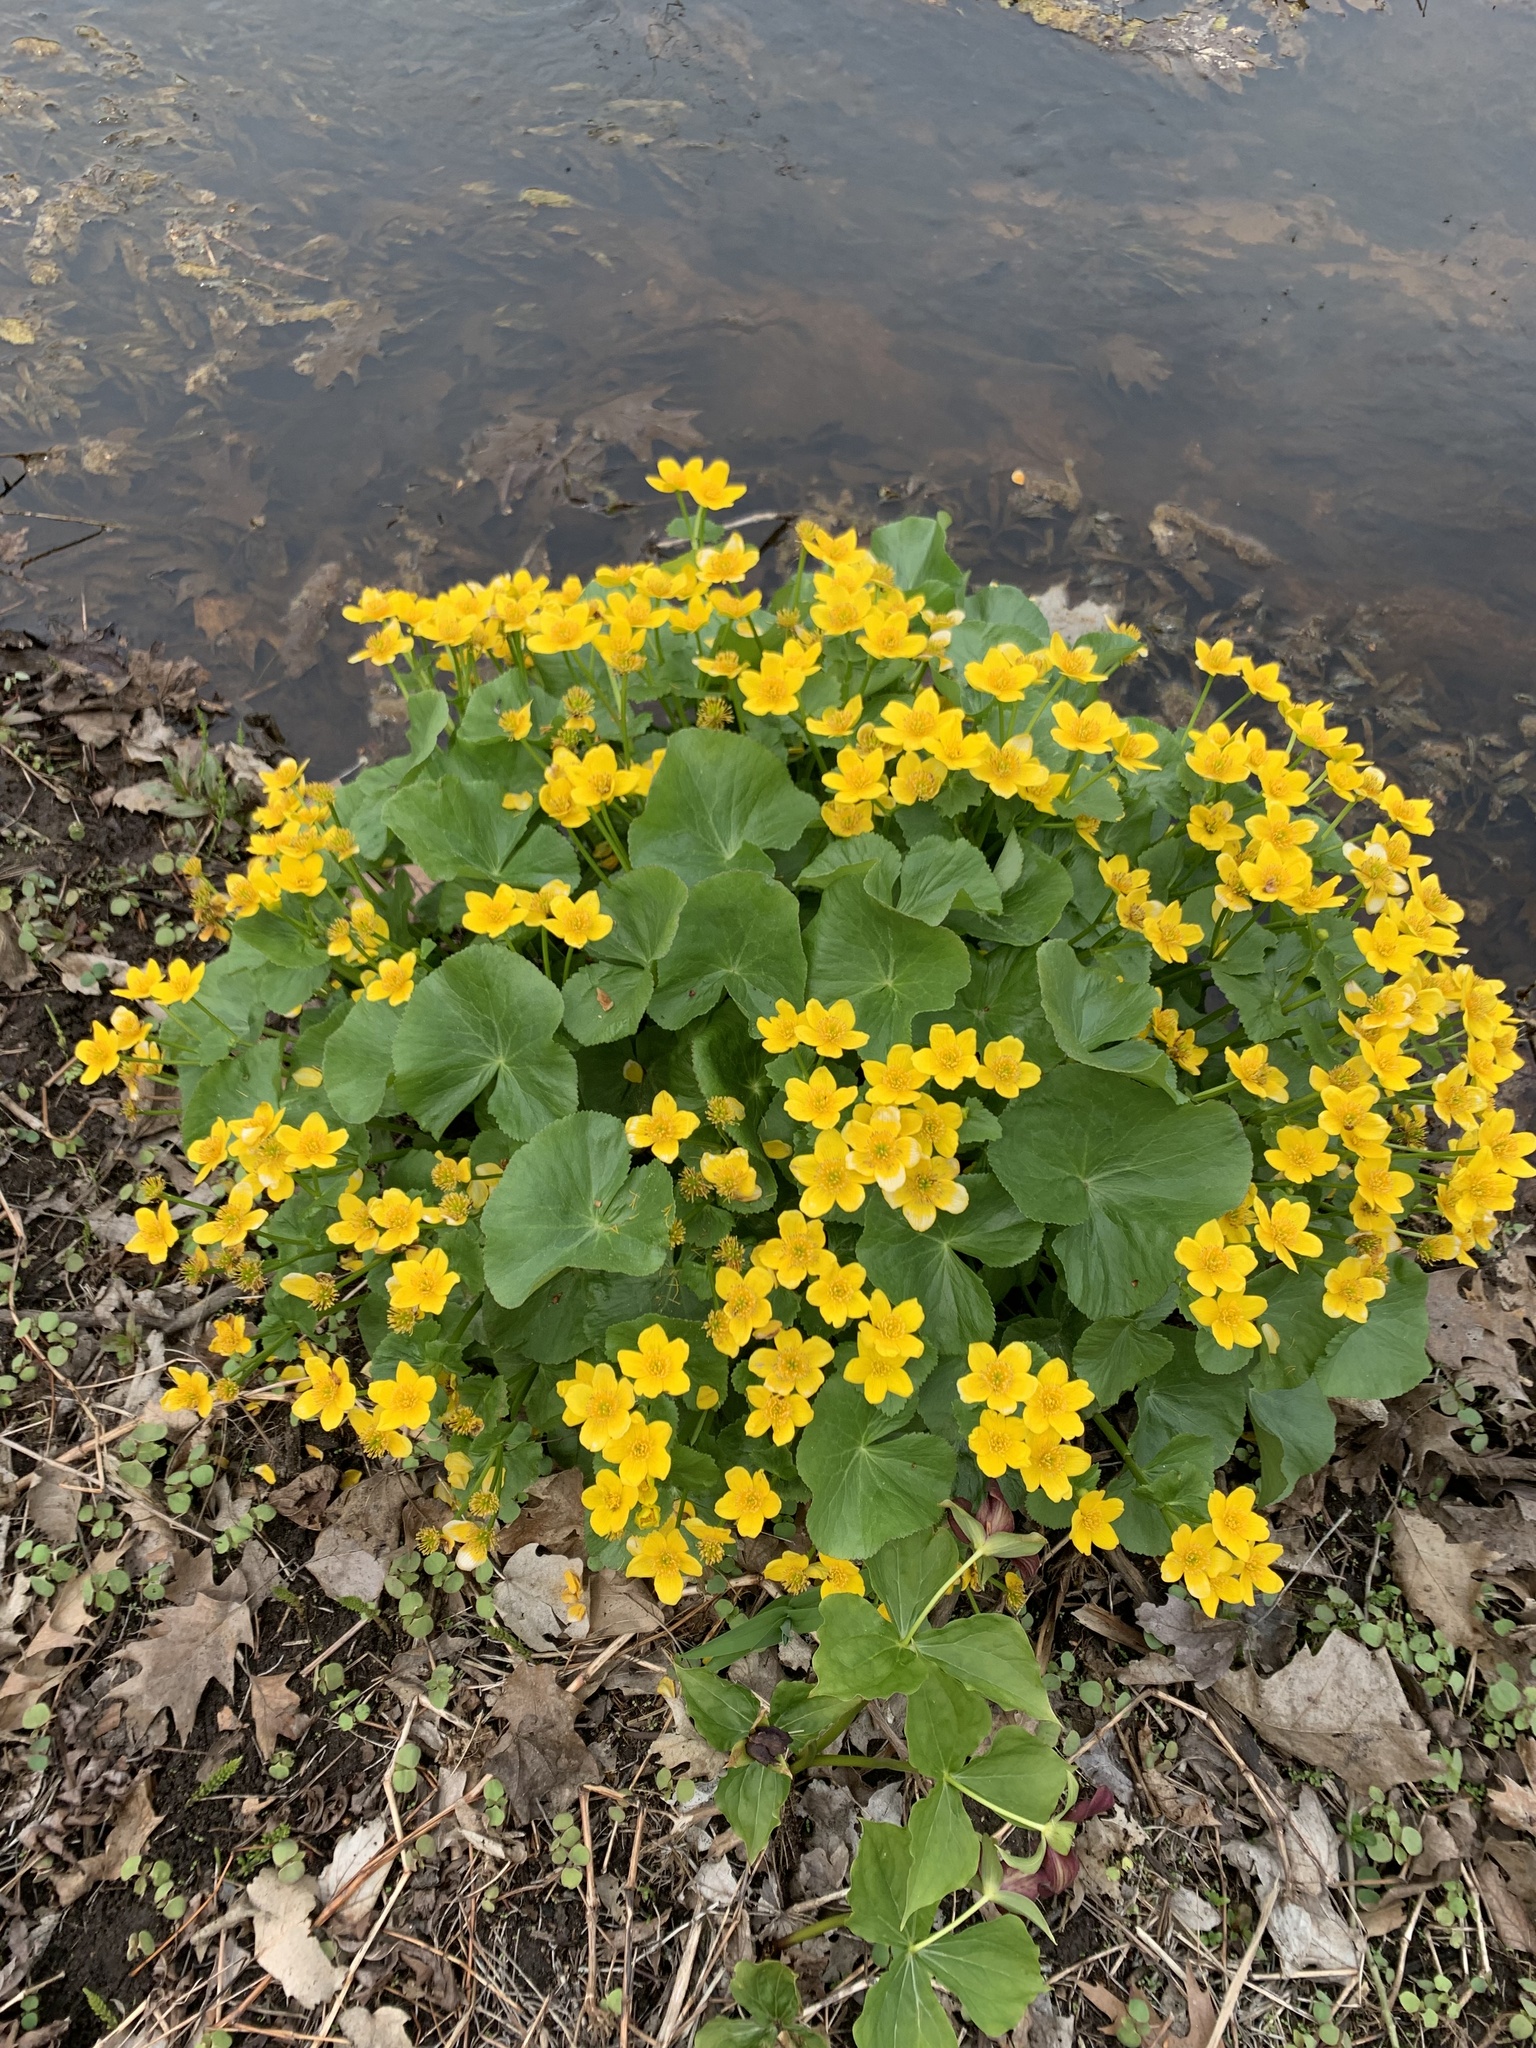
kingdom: Plantae
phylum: Tracheophyta
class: Magnoliopsida
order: Ranunculales
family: Ranunculaceae
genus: Caltha
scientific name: Caltha palustris
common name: Marsh marigold
